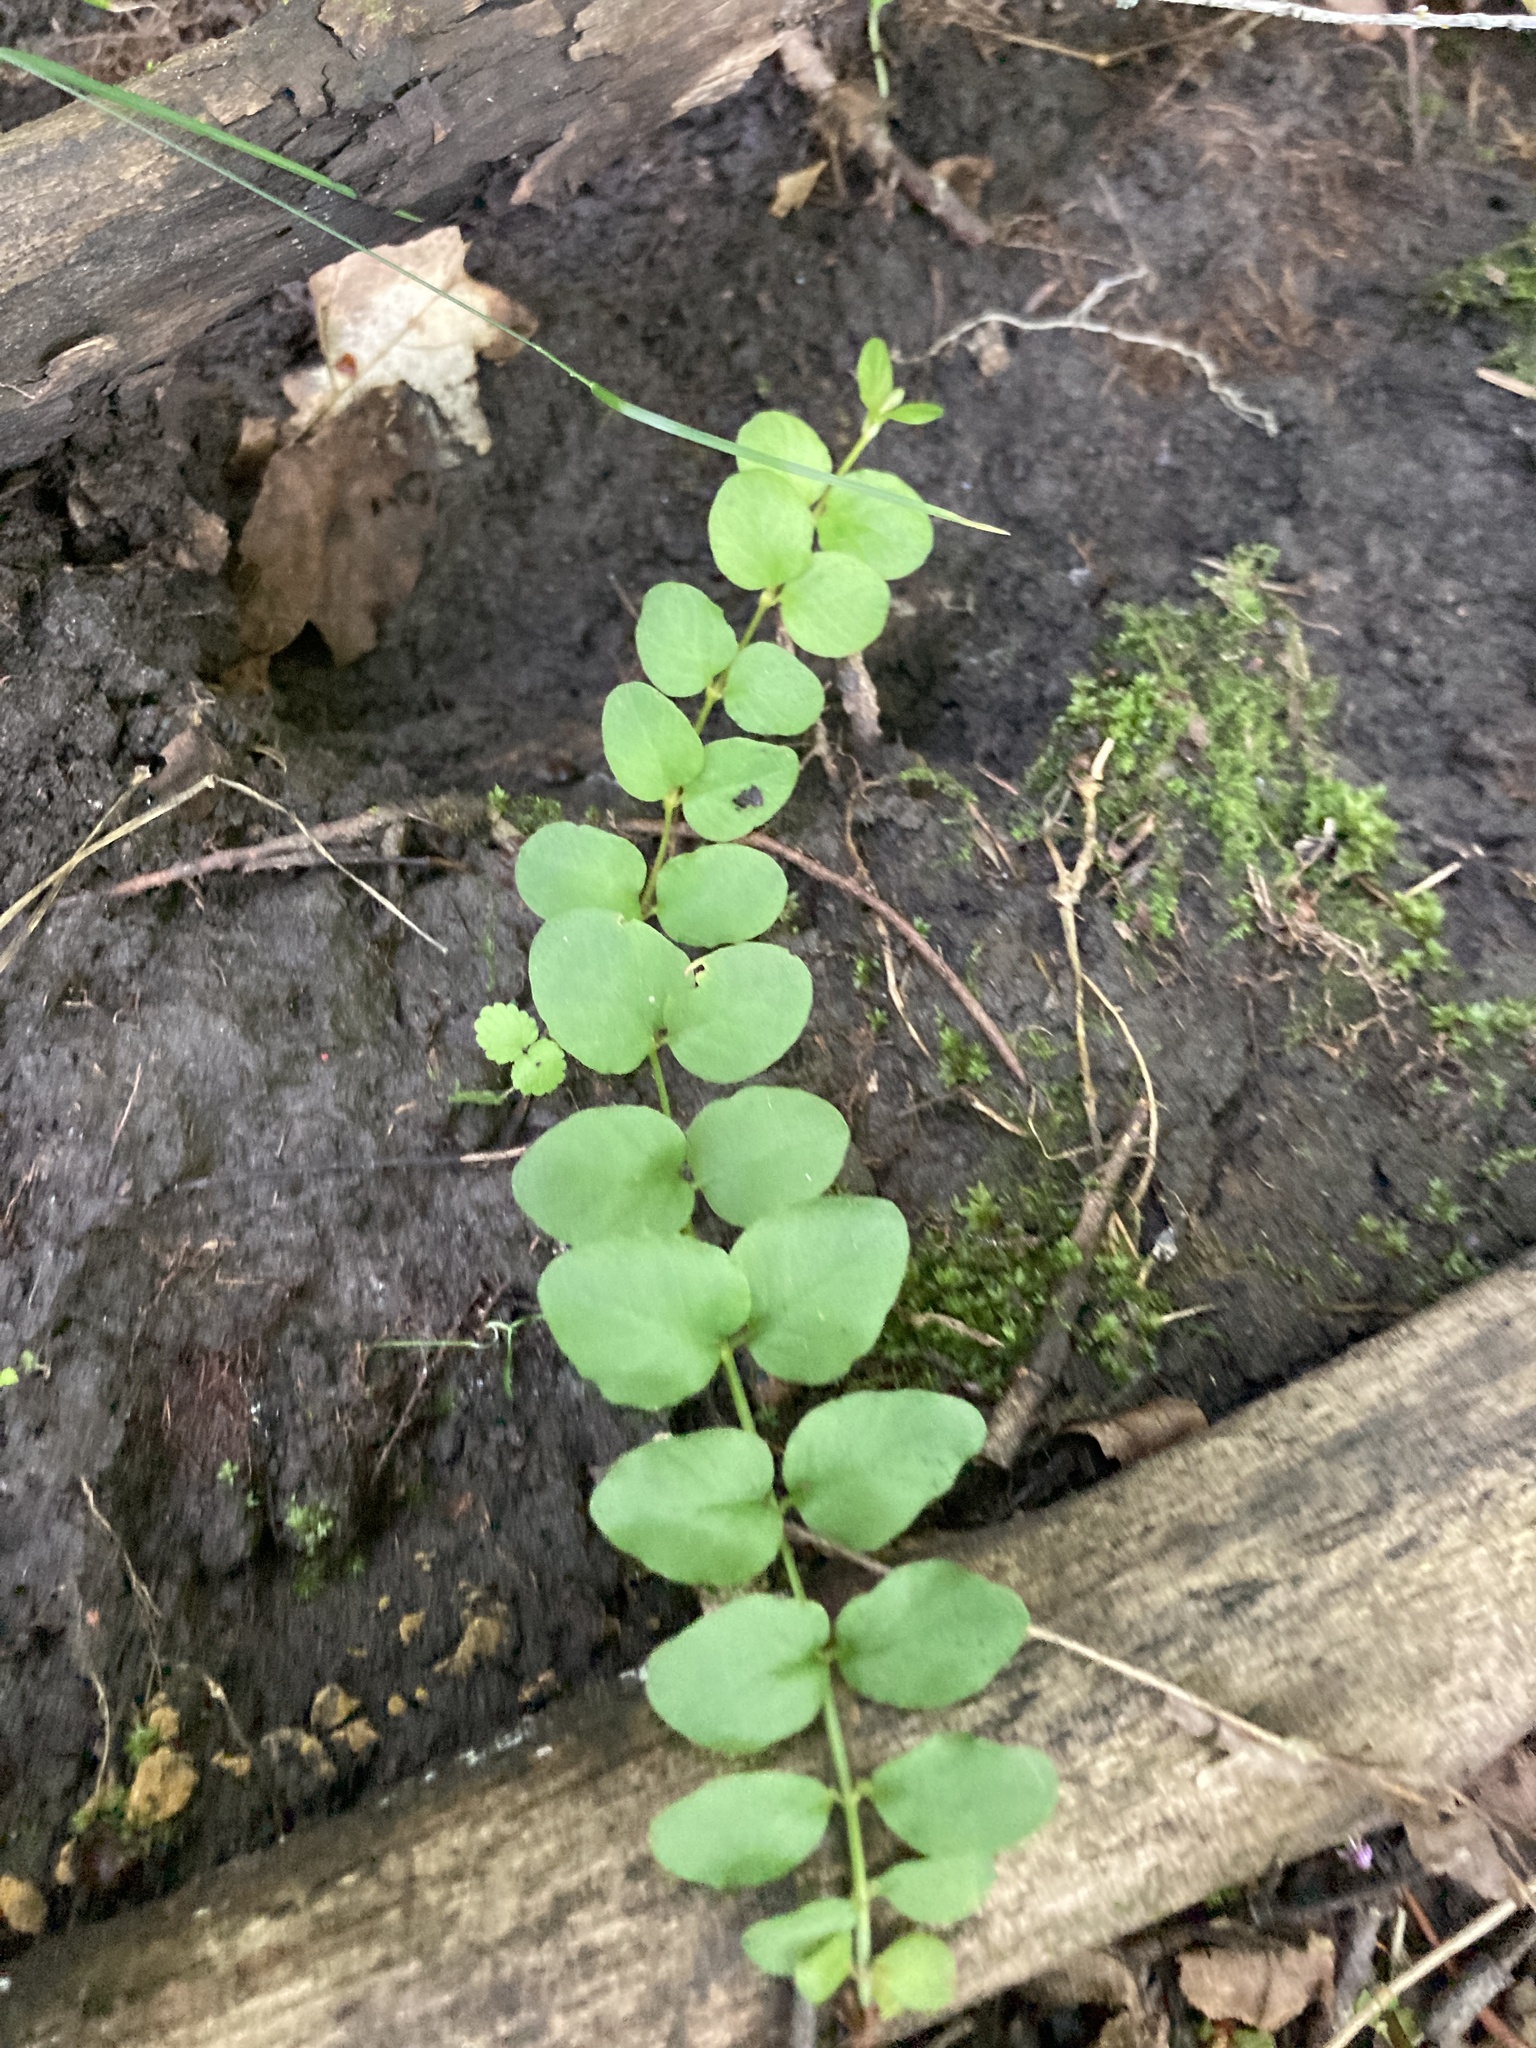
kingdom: Plantae
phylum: Tracheophyta
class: Magnoliopsida
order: Ericales
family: Primulaceae
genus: Lysimachia
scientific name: Lysimachia nummularia
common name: Moneywort
